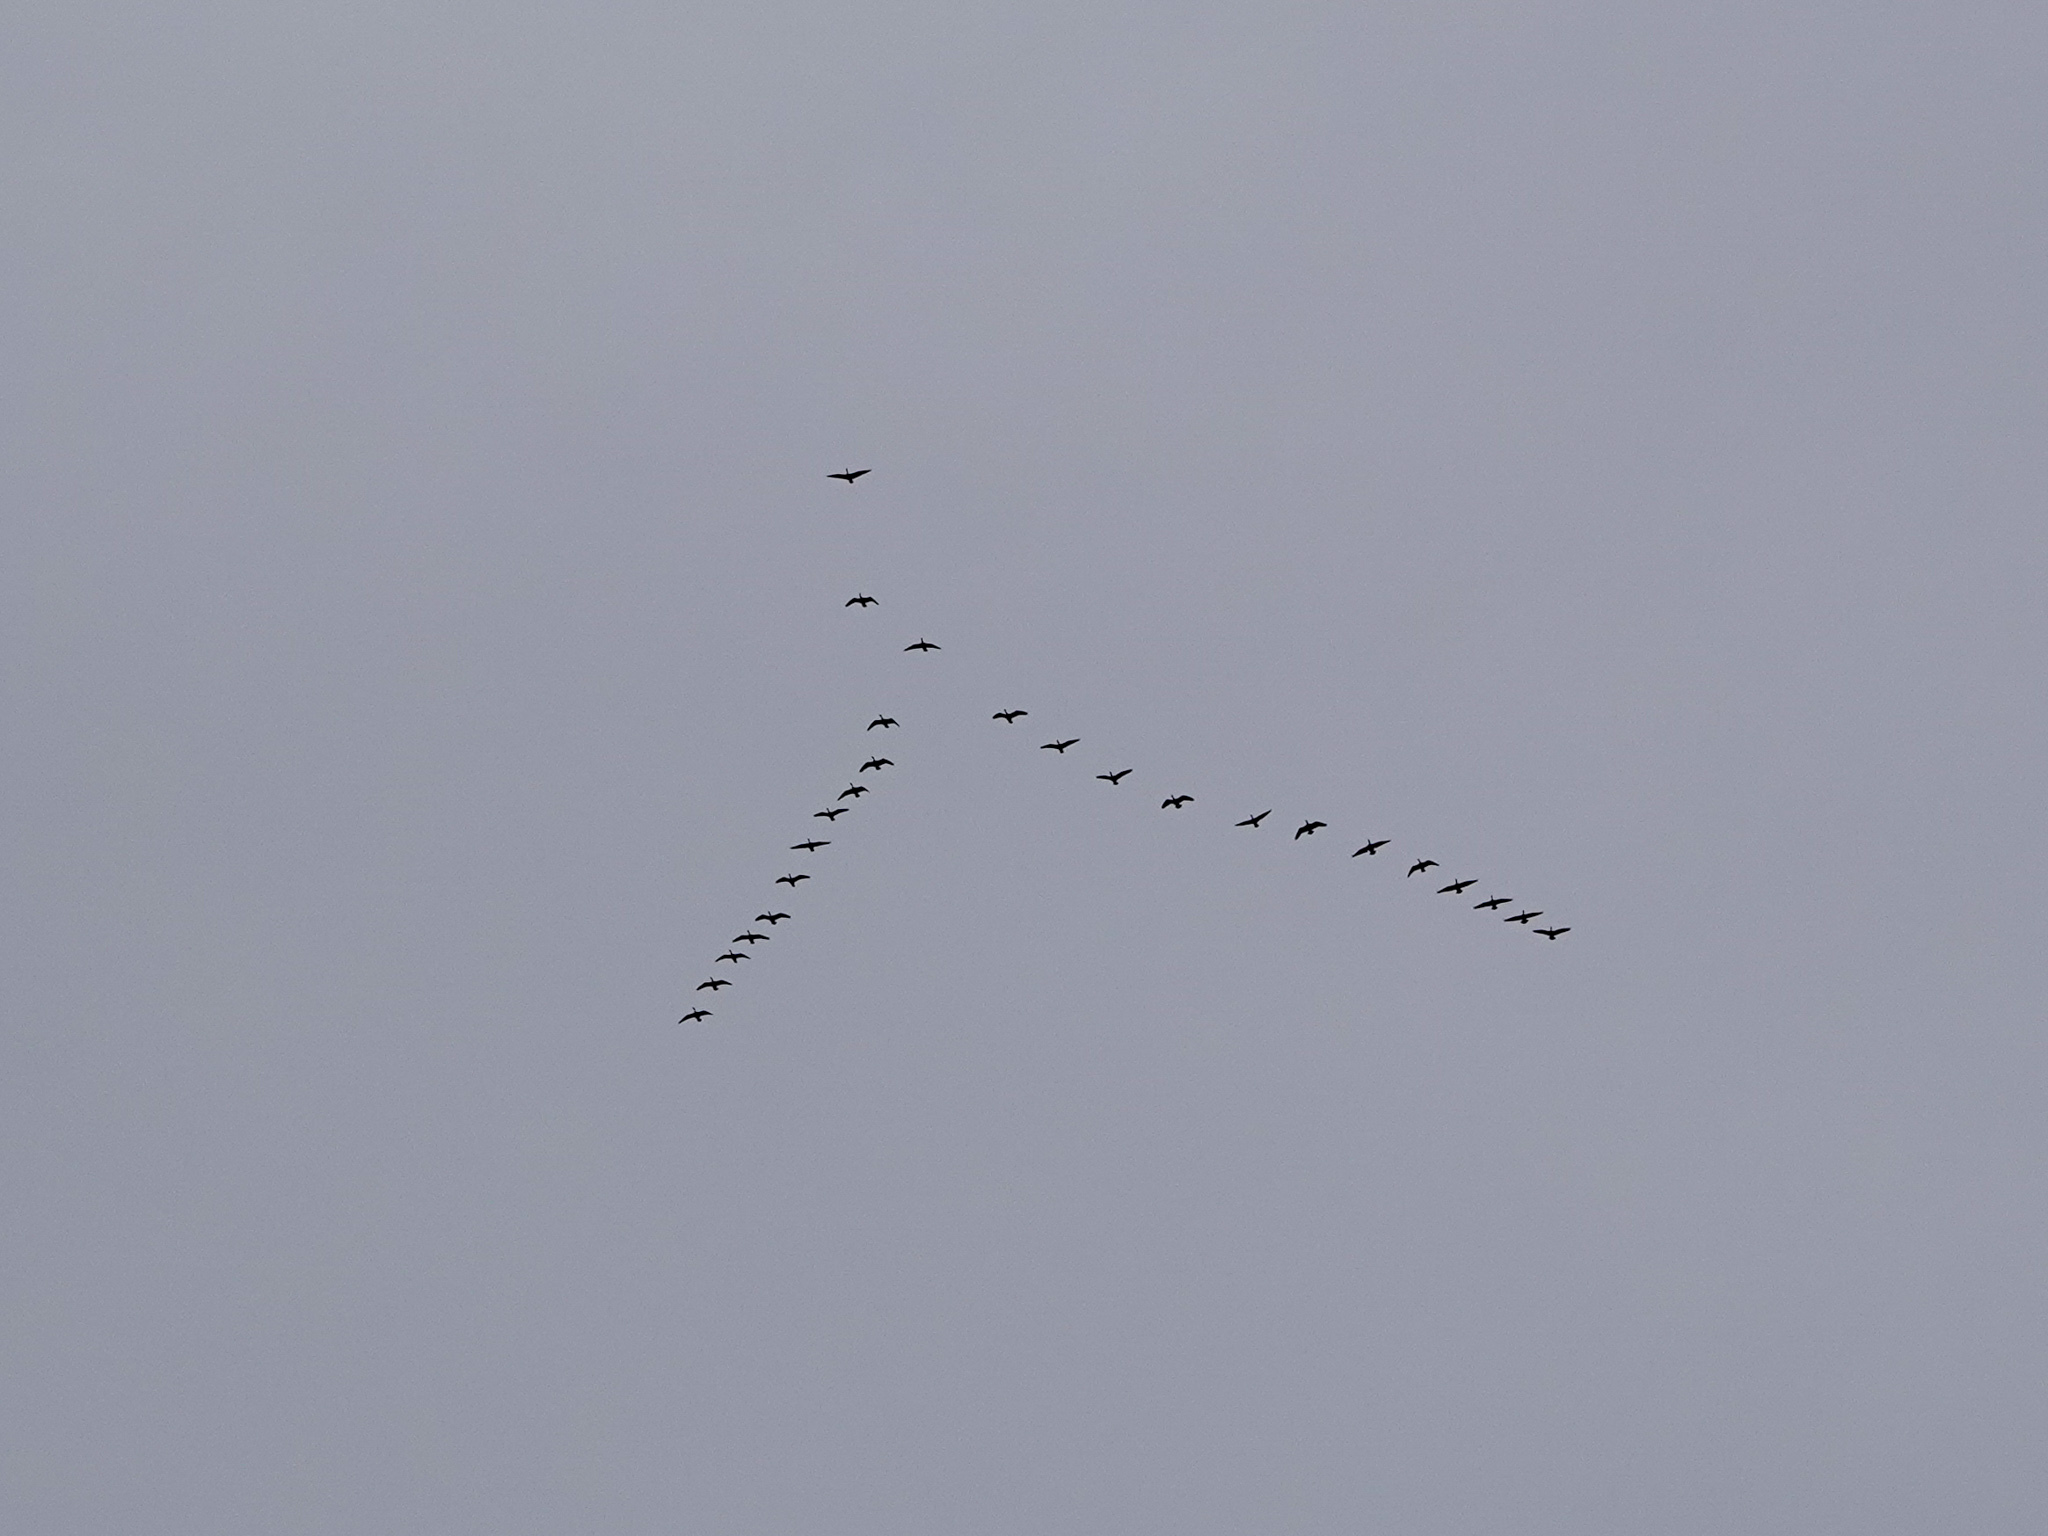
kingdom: Animalia
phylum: Chordata
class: Aves
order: Anseriformes
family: Anatidae
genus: Branta
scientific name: Branta canadensis
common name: Canada goose
